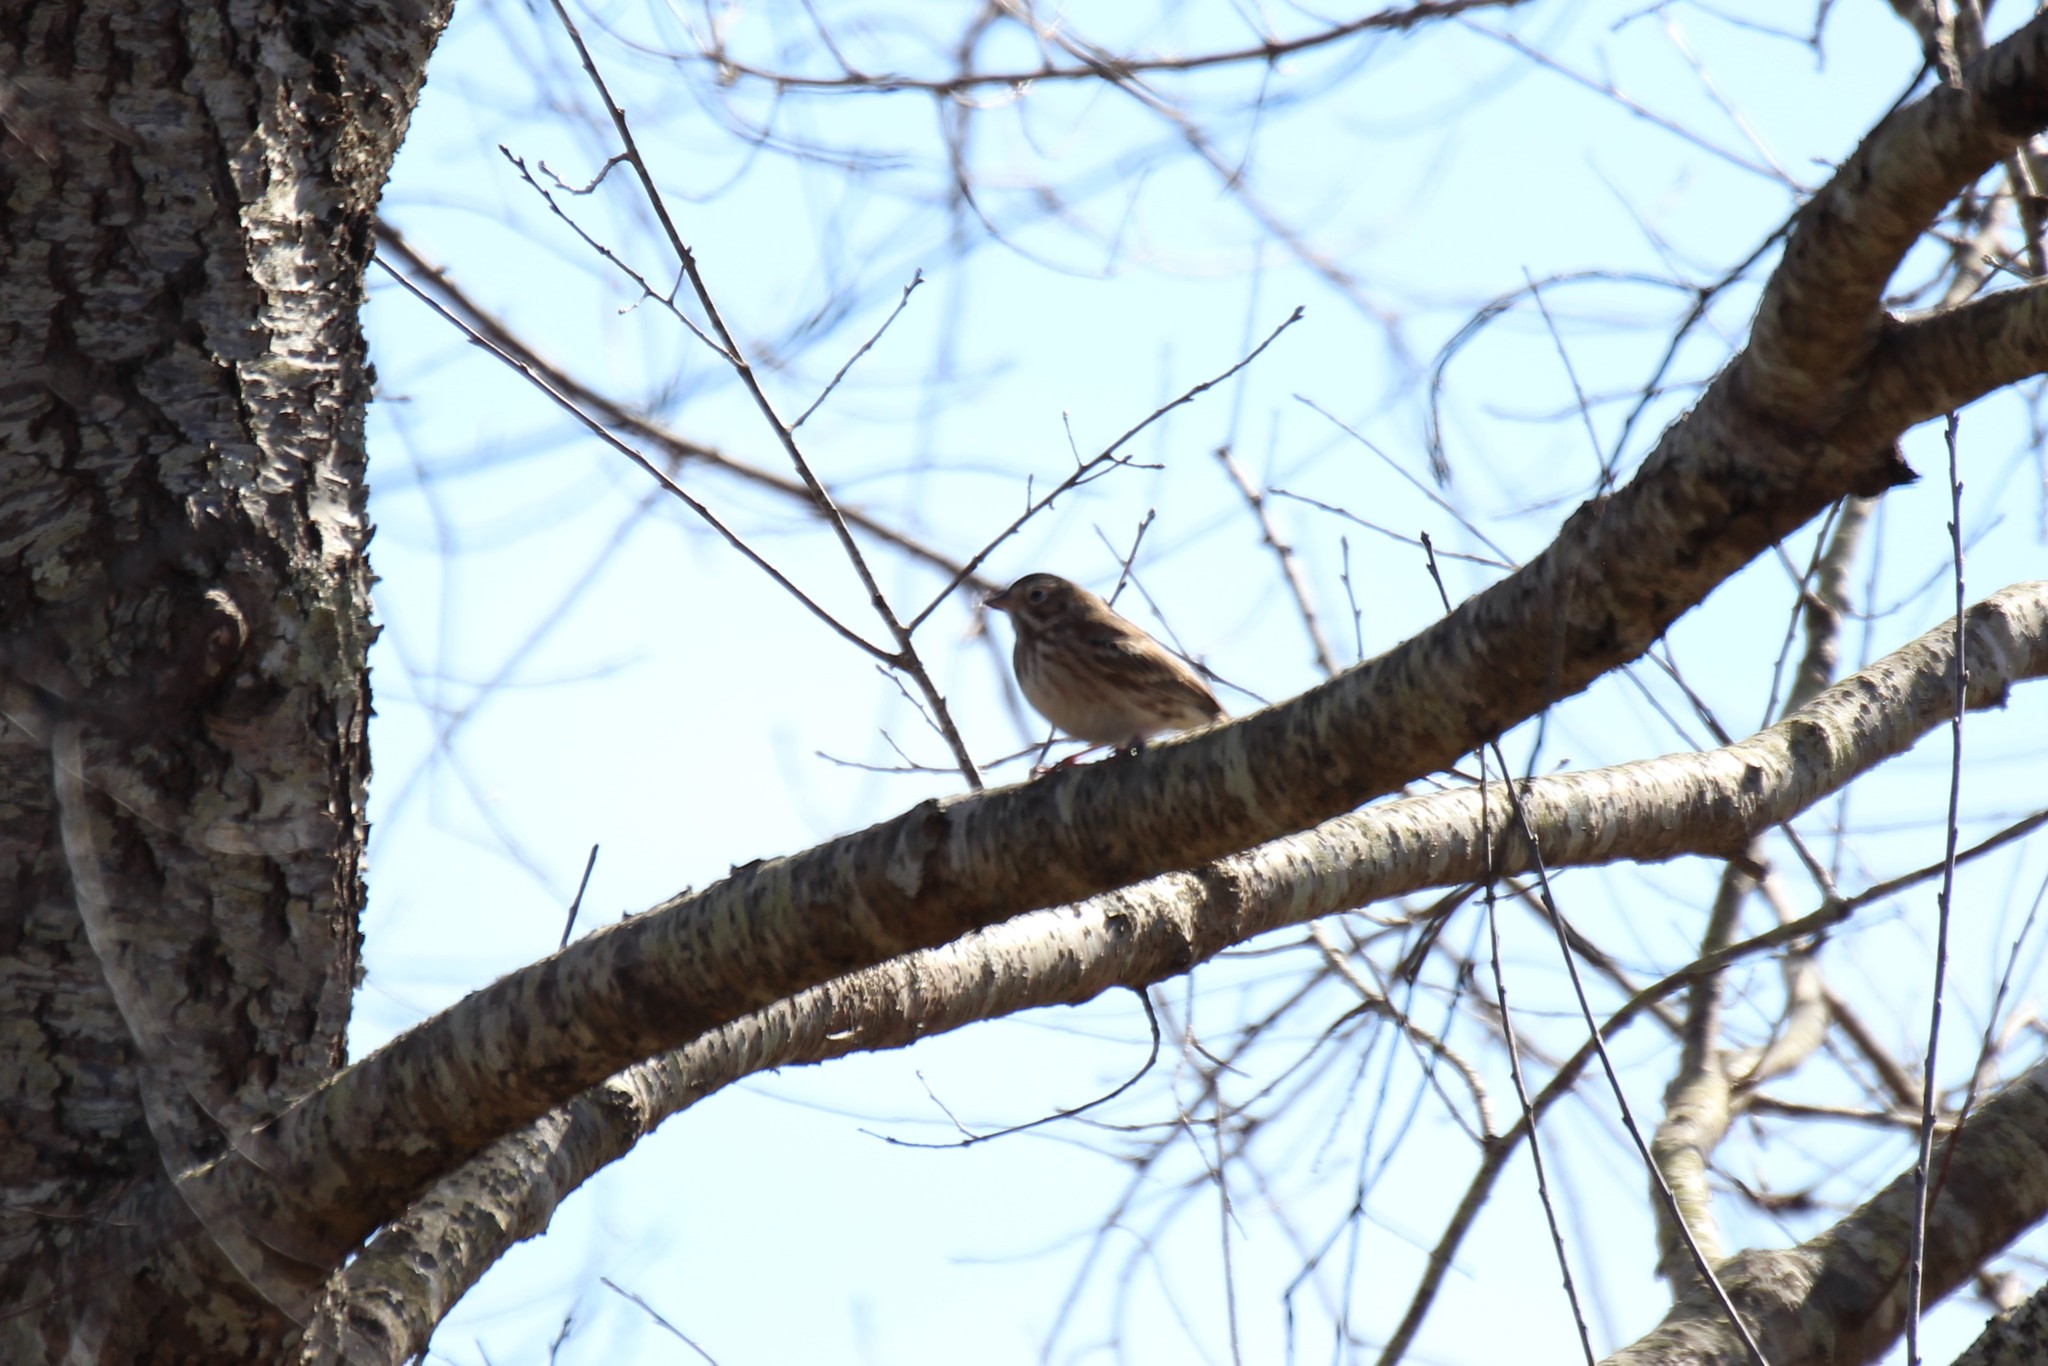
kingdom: Animalia
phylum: Chordata
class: Aves
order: Passeriformes
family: Passerellidae
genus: Pooecetes
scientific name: Pooecetes gramineus
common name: Vesper sparrow
